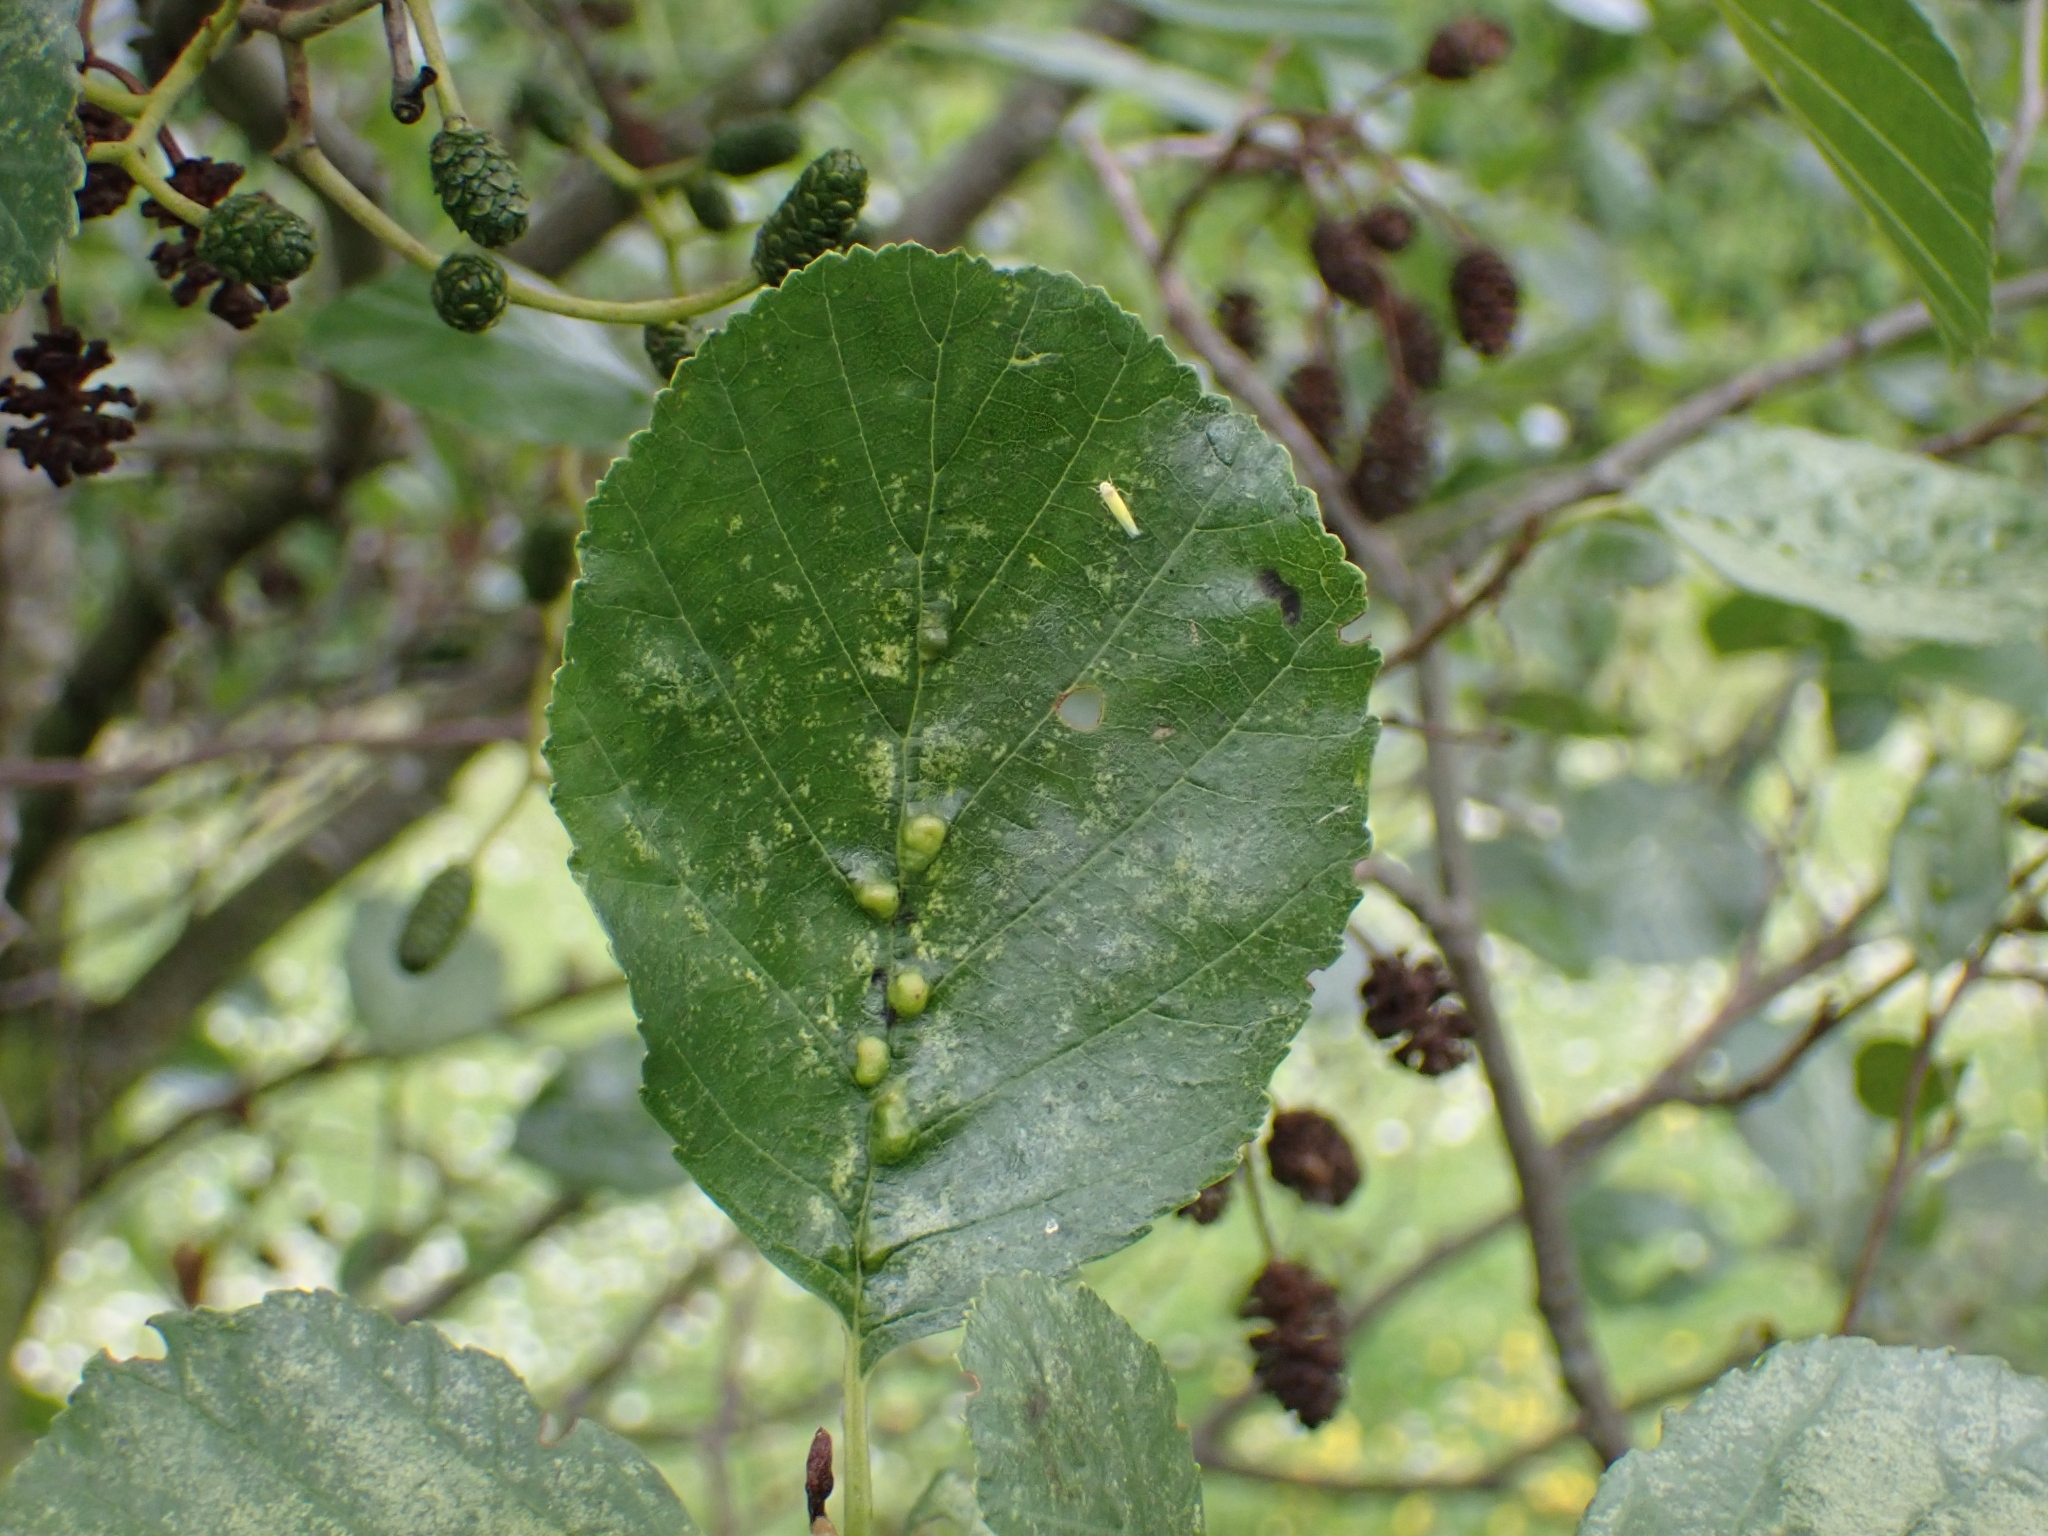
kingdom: Animalia
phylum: Arthropoda
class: Arachnida
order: Trombidiformes
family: Eriophyidae
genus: Eriophyes
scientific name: Eriophyes inangulis
